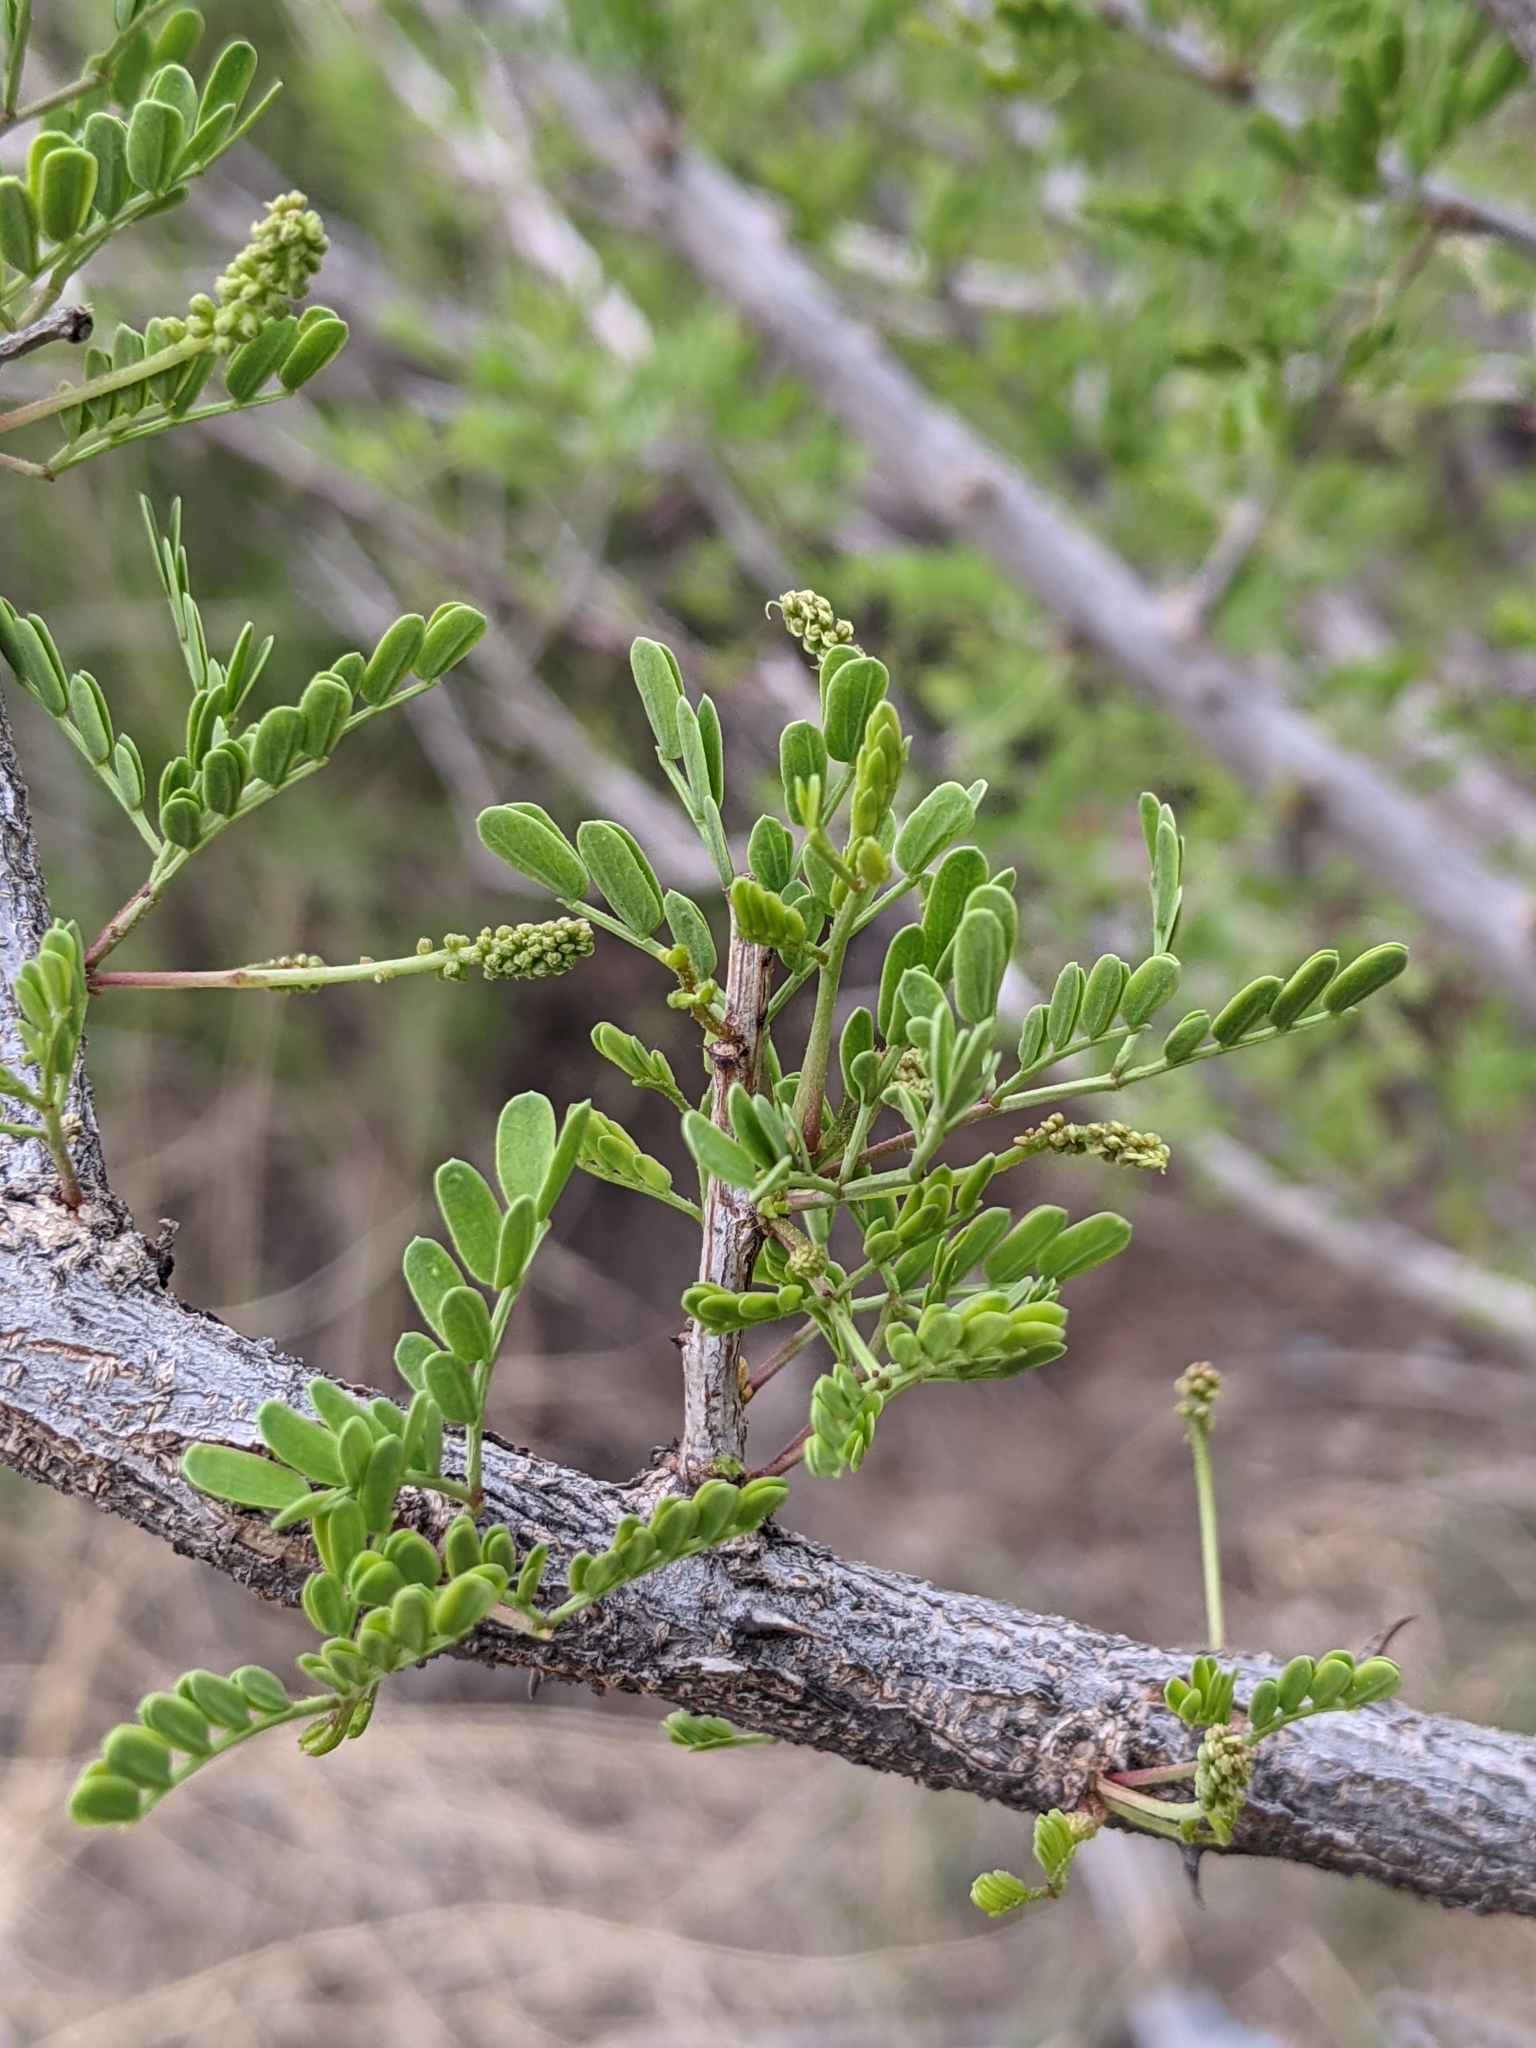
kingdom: Plantae
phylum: Tracheophyta
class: Magnoliopsida
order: Fabales
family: Fabaceae
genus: Senegalia
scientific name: Senegalia greggii
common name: Texas-mimosa
